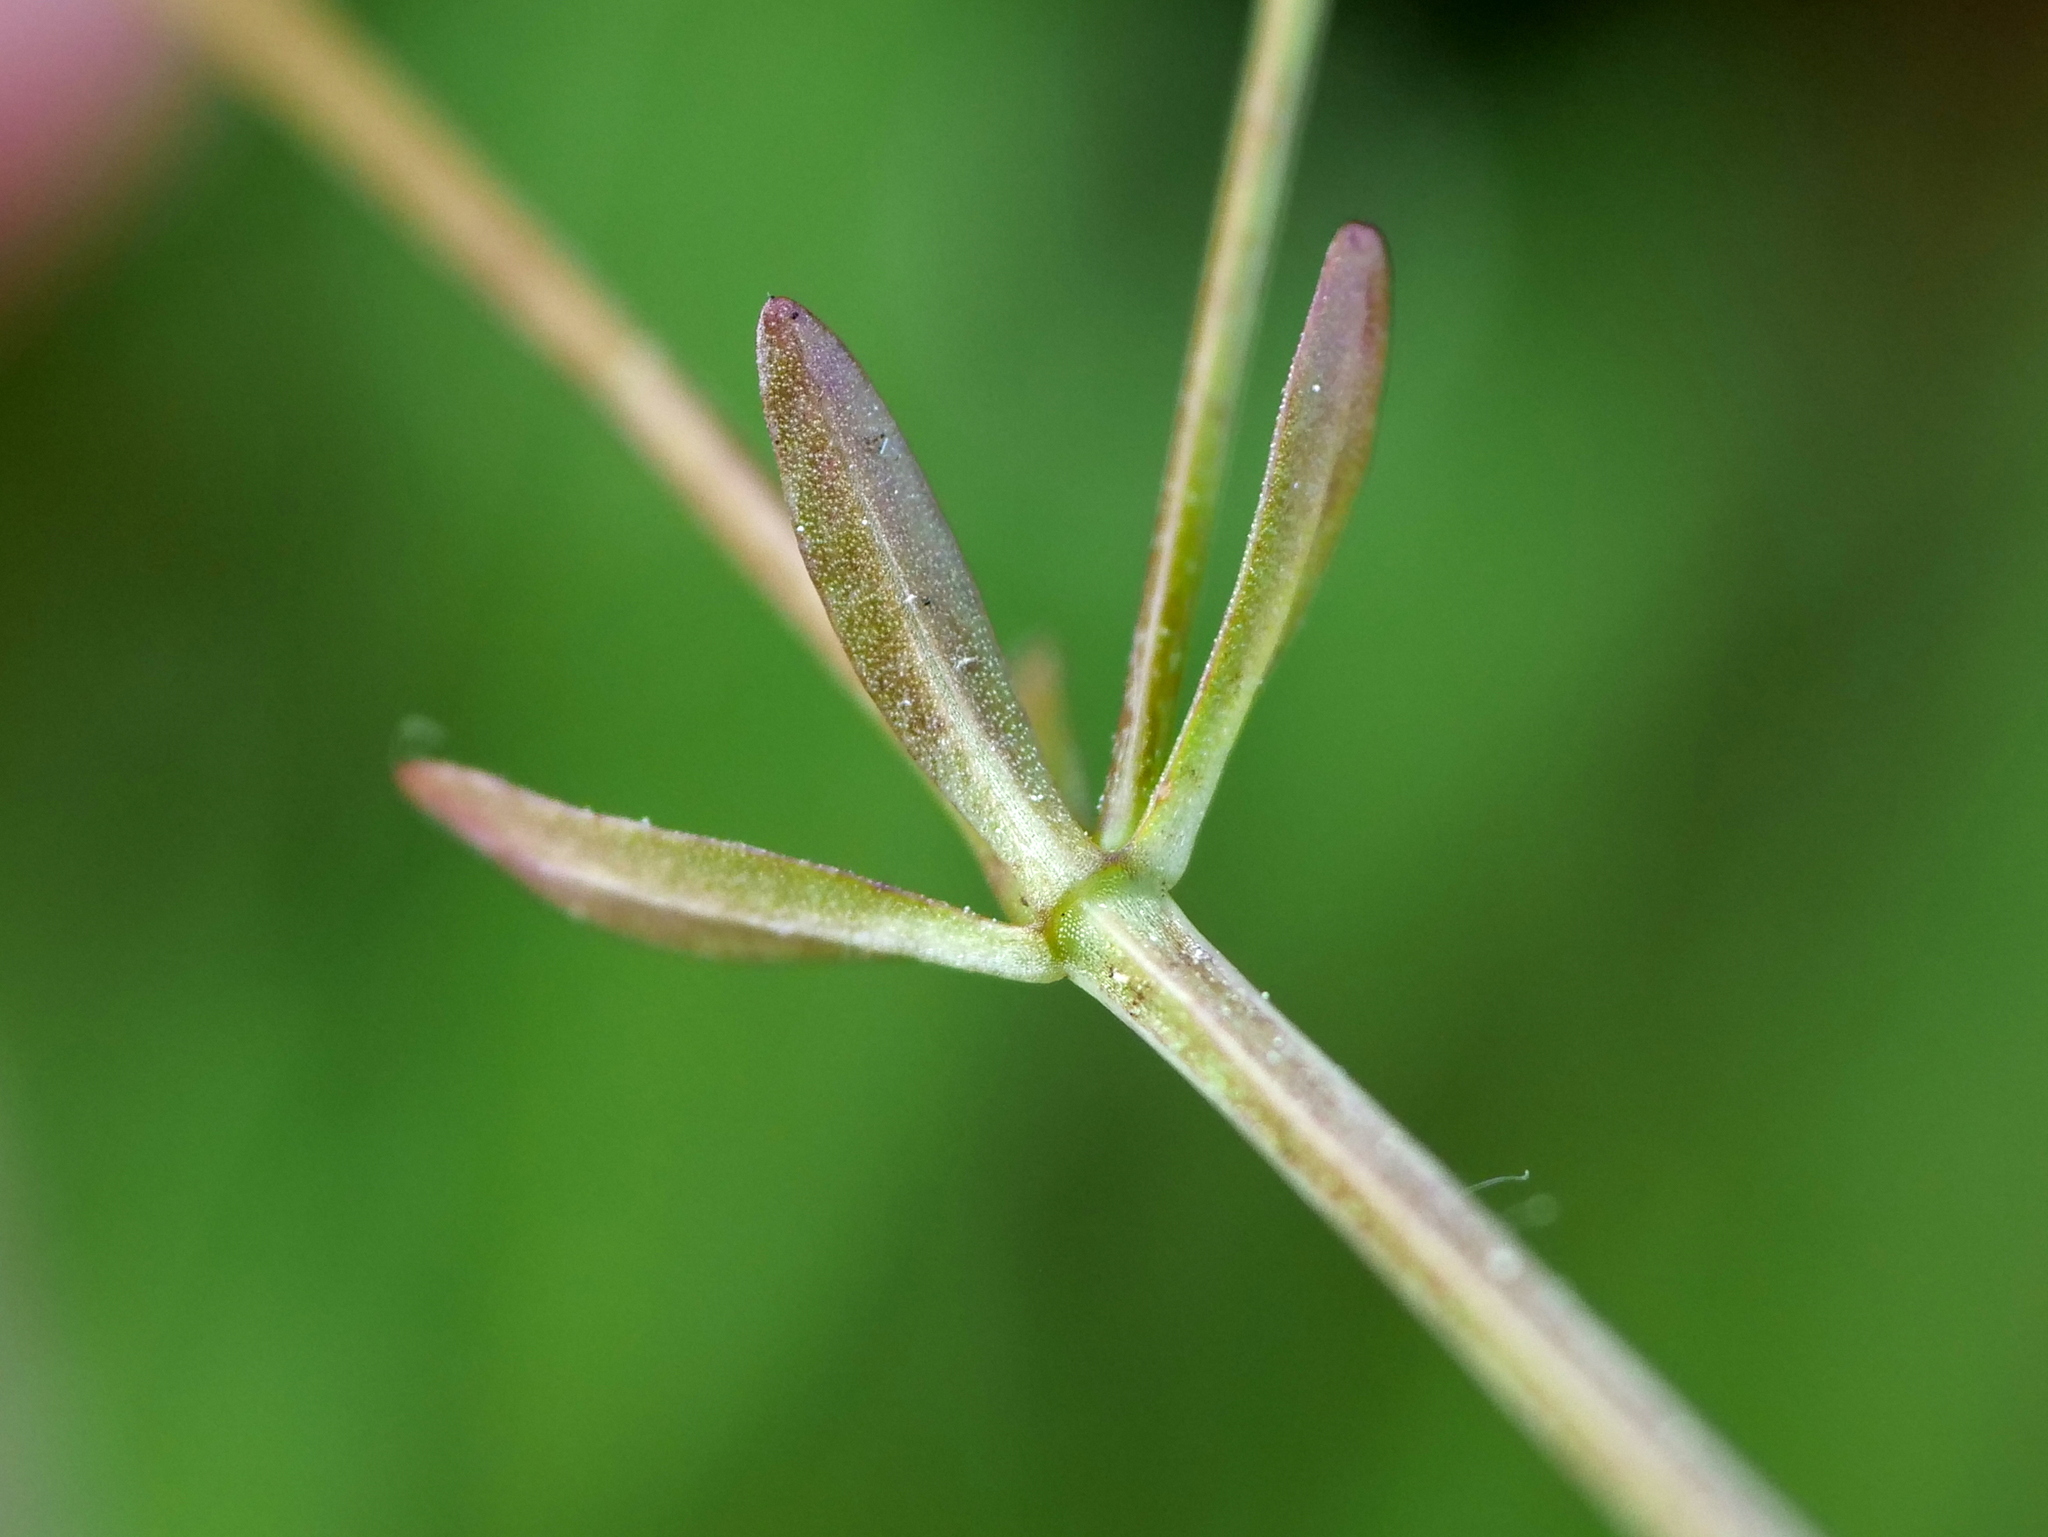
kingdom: Plantae
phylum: Tracheophyta
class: Magnoliopsida
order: Gentianales
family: Rubiaceae
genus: Galium
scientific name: Galium palustre
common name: Common marsh-bedstraw
